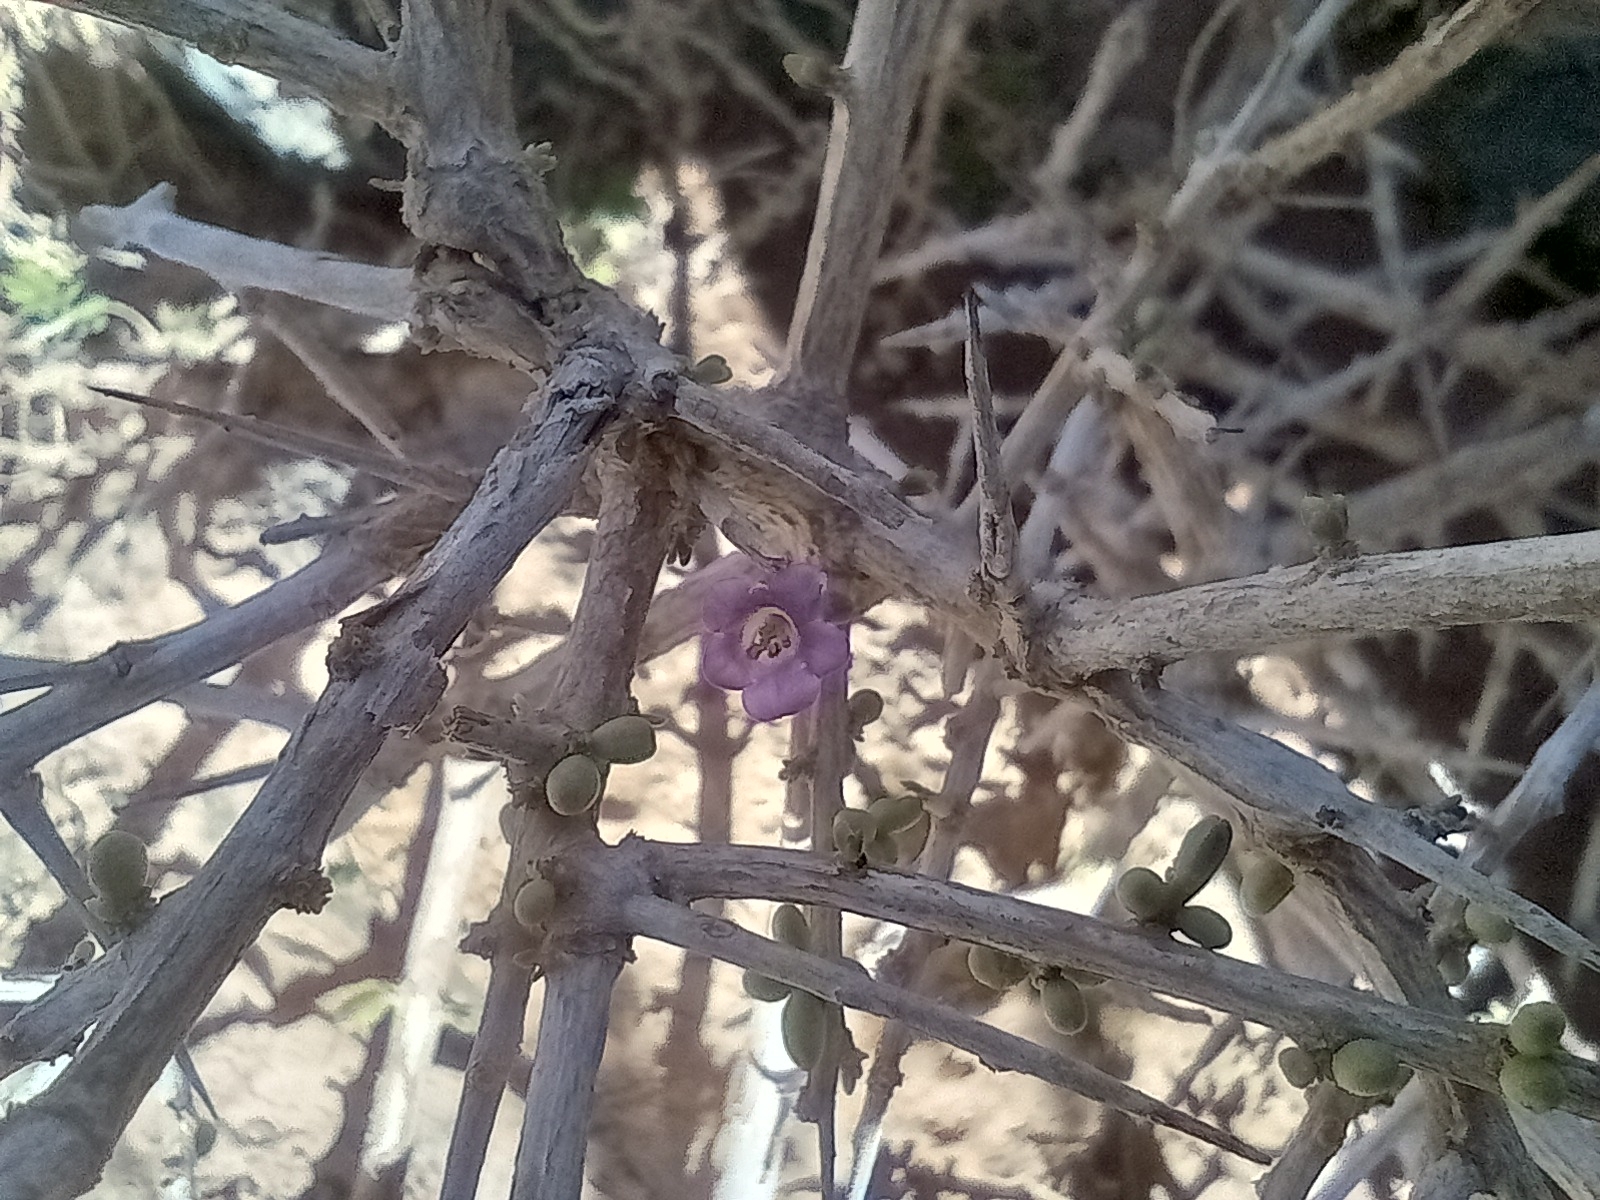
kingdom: Plantae
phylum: Tracheophyta
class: Magnoliopsida
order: Solanales
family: Solanaceae
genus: Lycium
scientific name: Lycium intricatum
